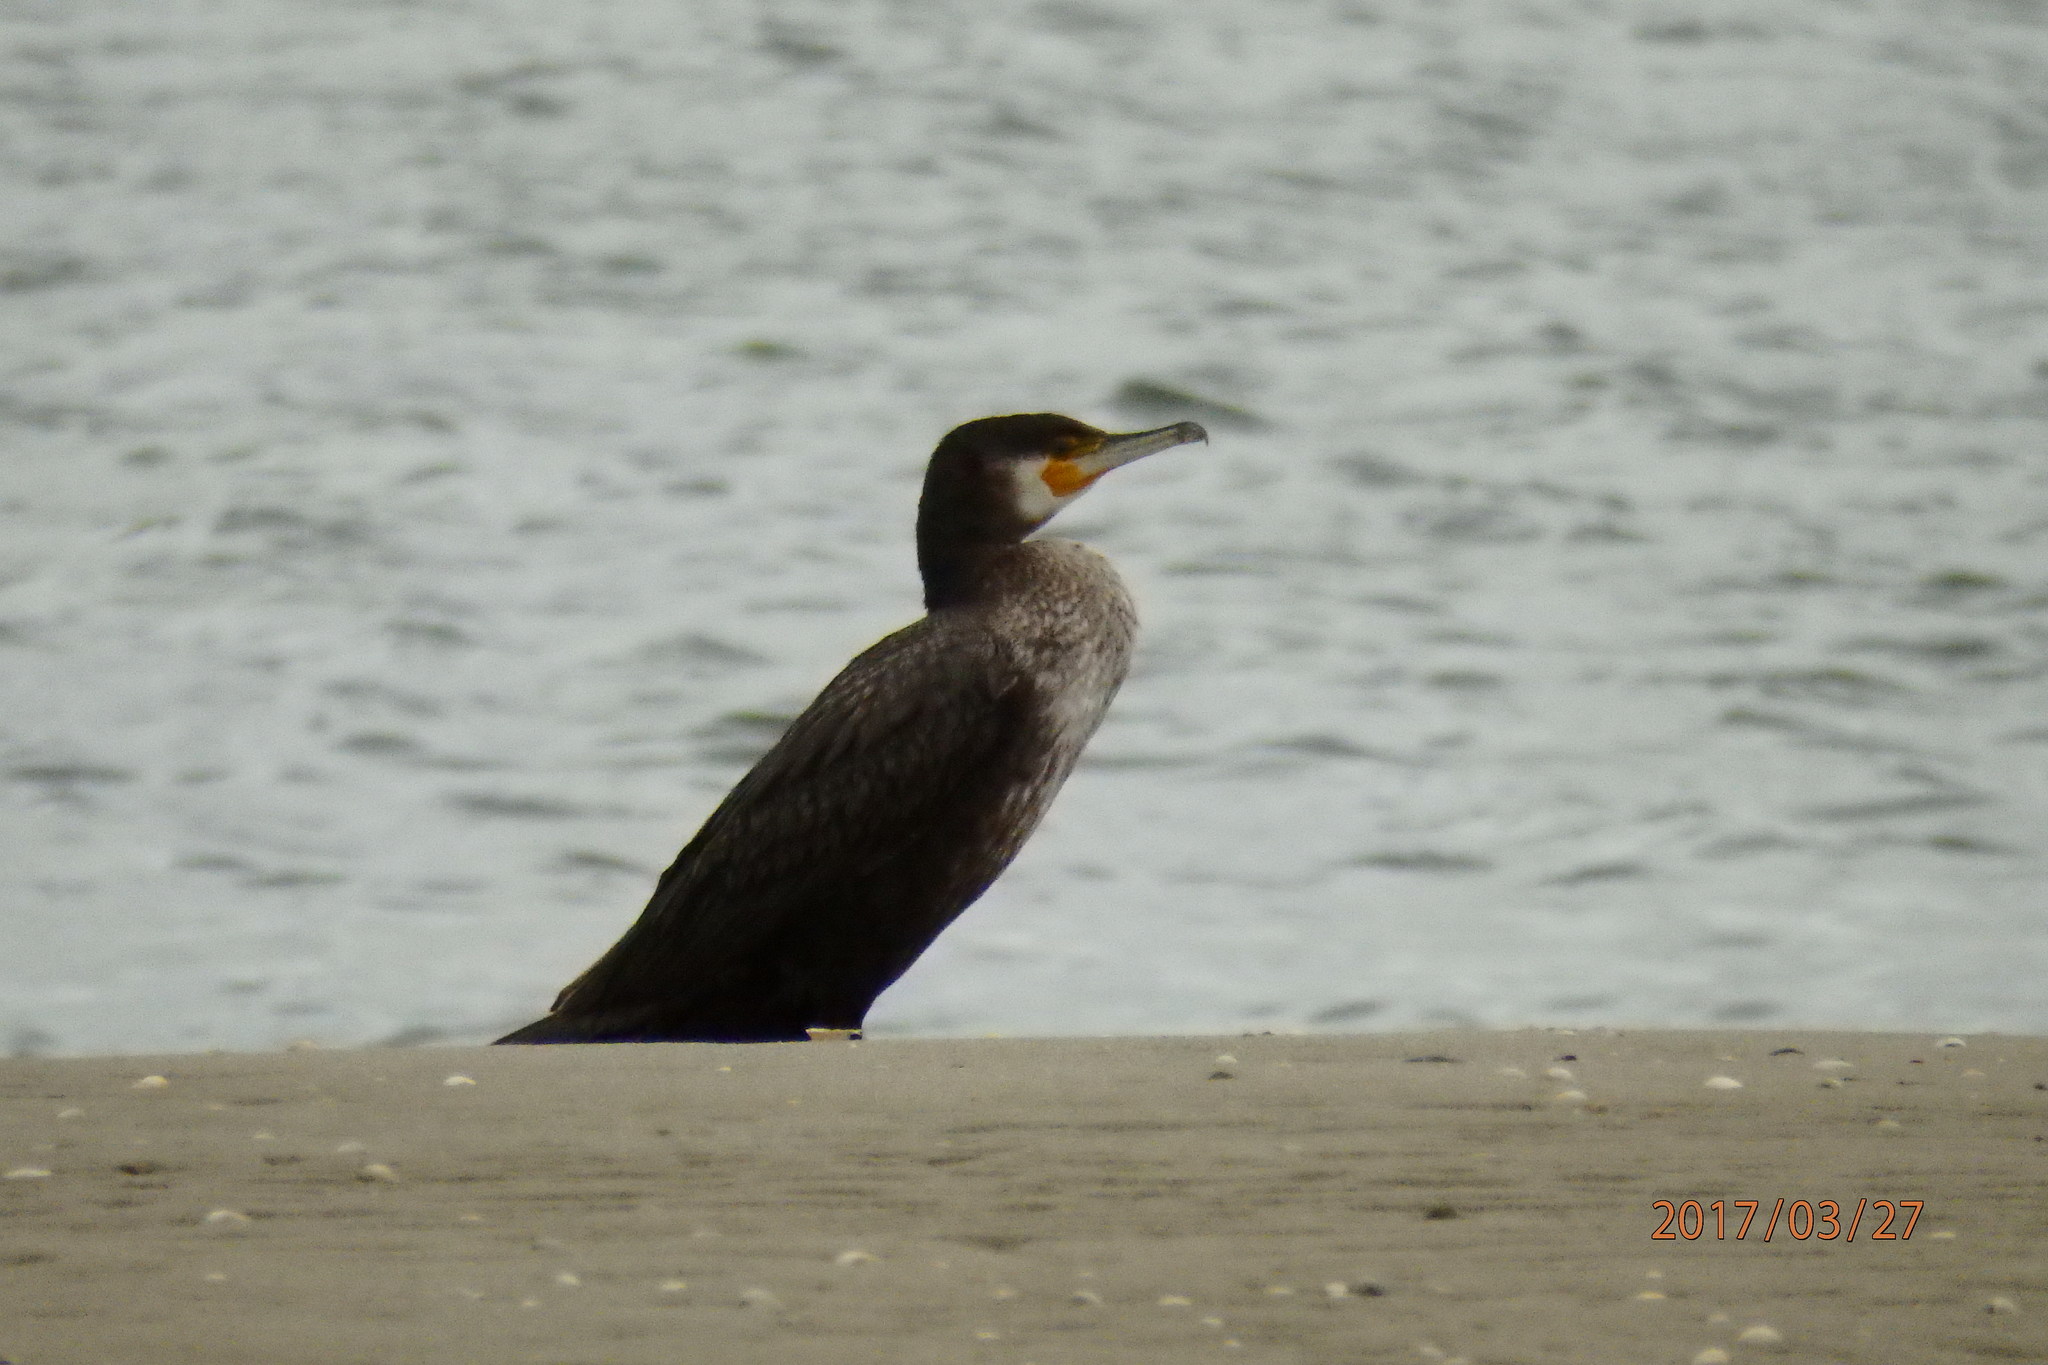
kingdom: Animalia
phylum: Chordata
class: Aves
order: Suliformes
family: Phalacrocoracidae
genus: Phalacrocorax
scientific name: Phalacrocorax carbo
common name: Great cormorant
